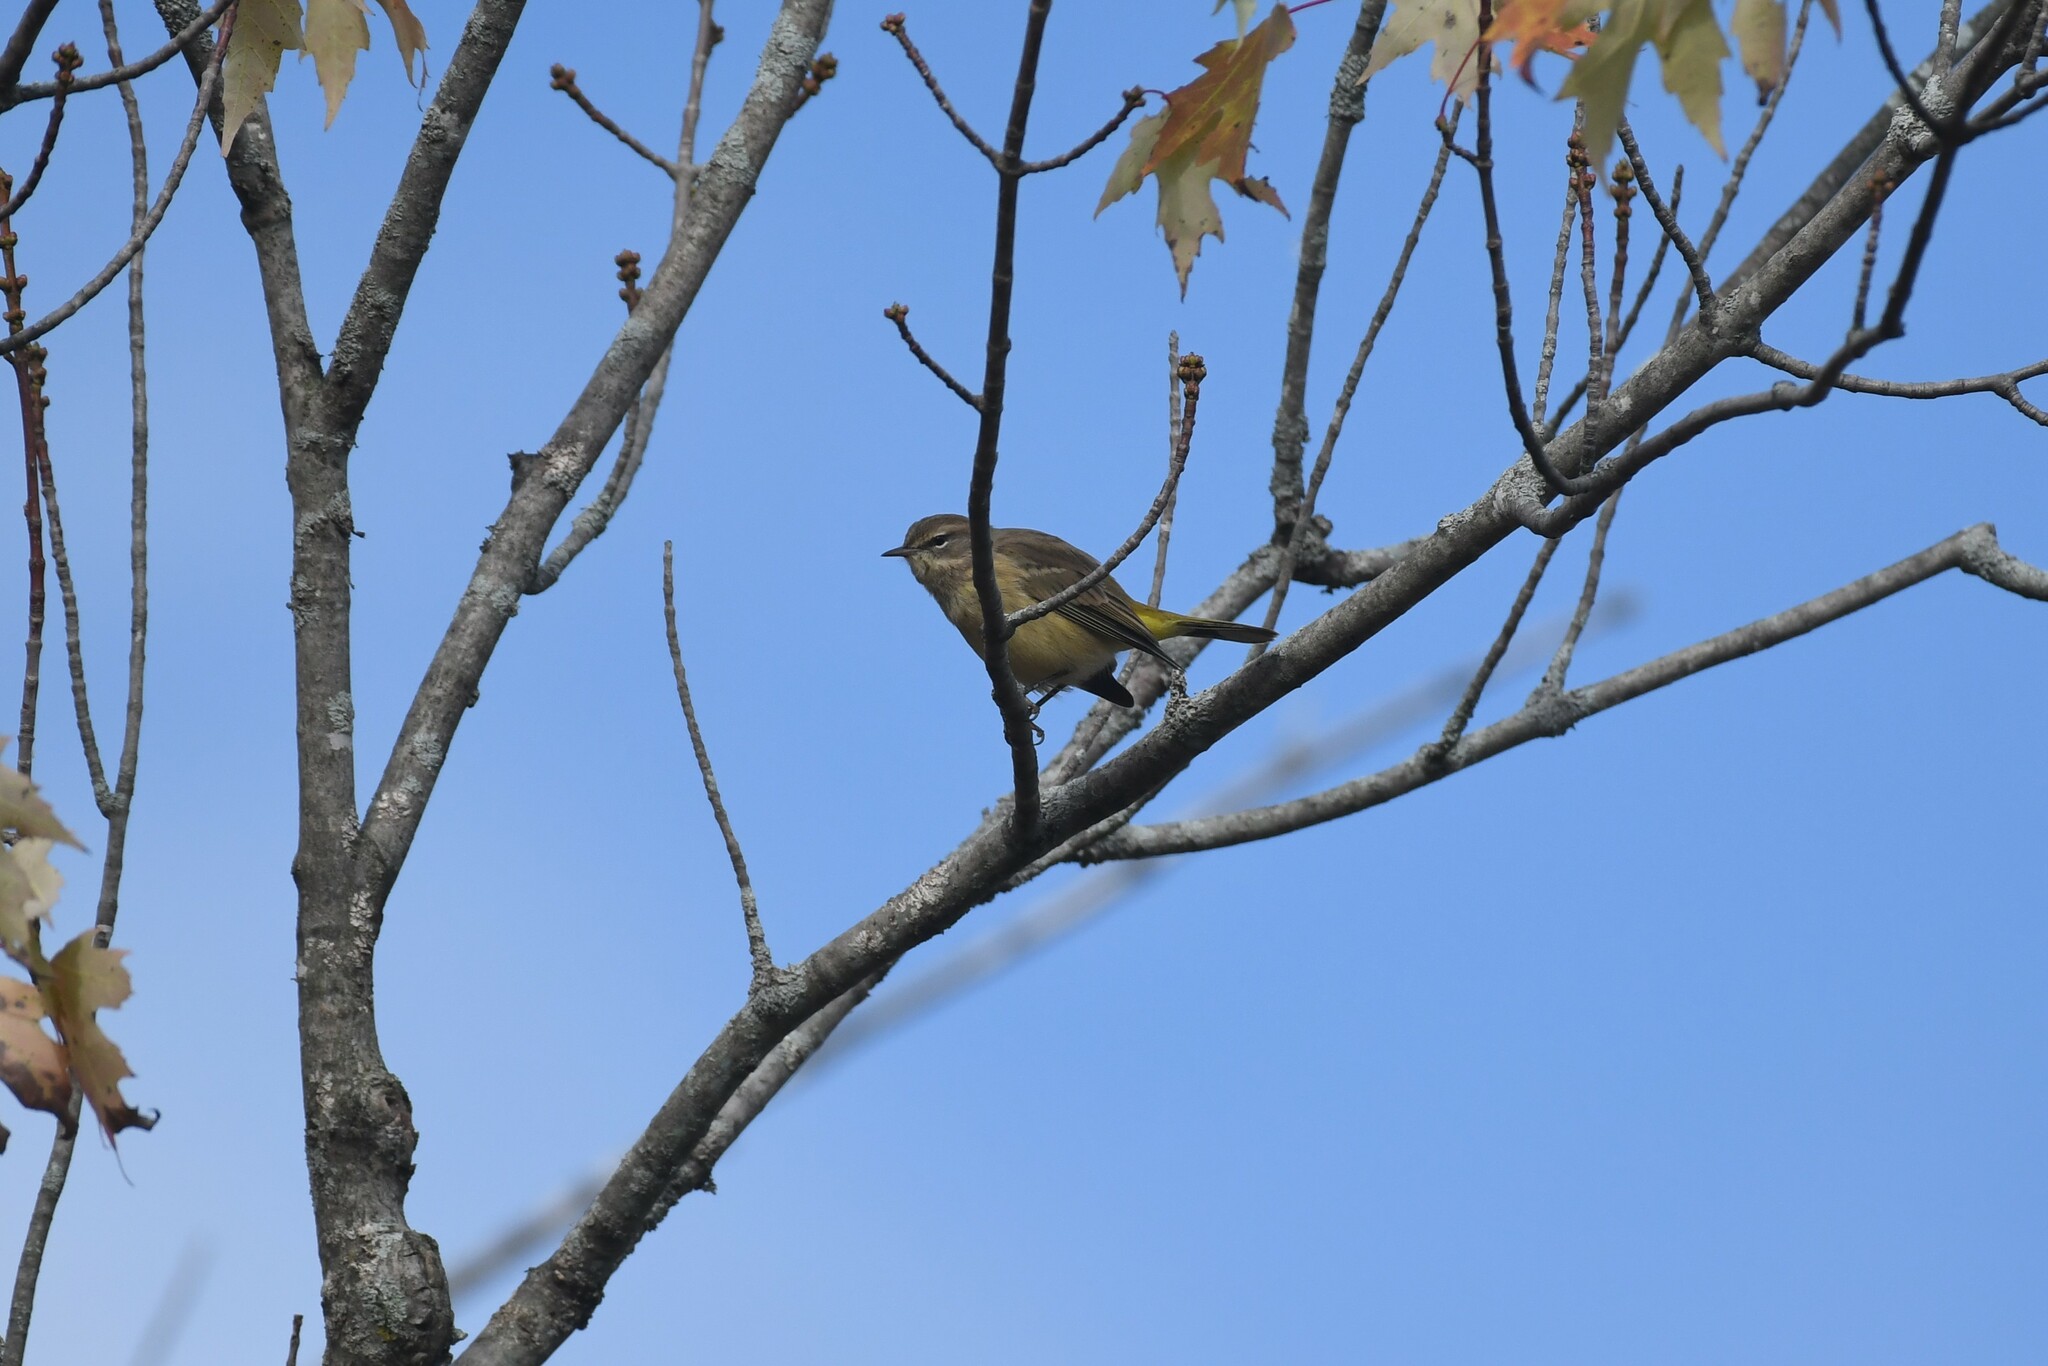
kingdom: Animalia
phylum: Chordata
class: Aves
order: Passeriformes
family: Parulidae
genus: Setophaga
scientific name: Setophaga palmarum
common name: Palm warbler
